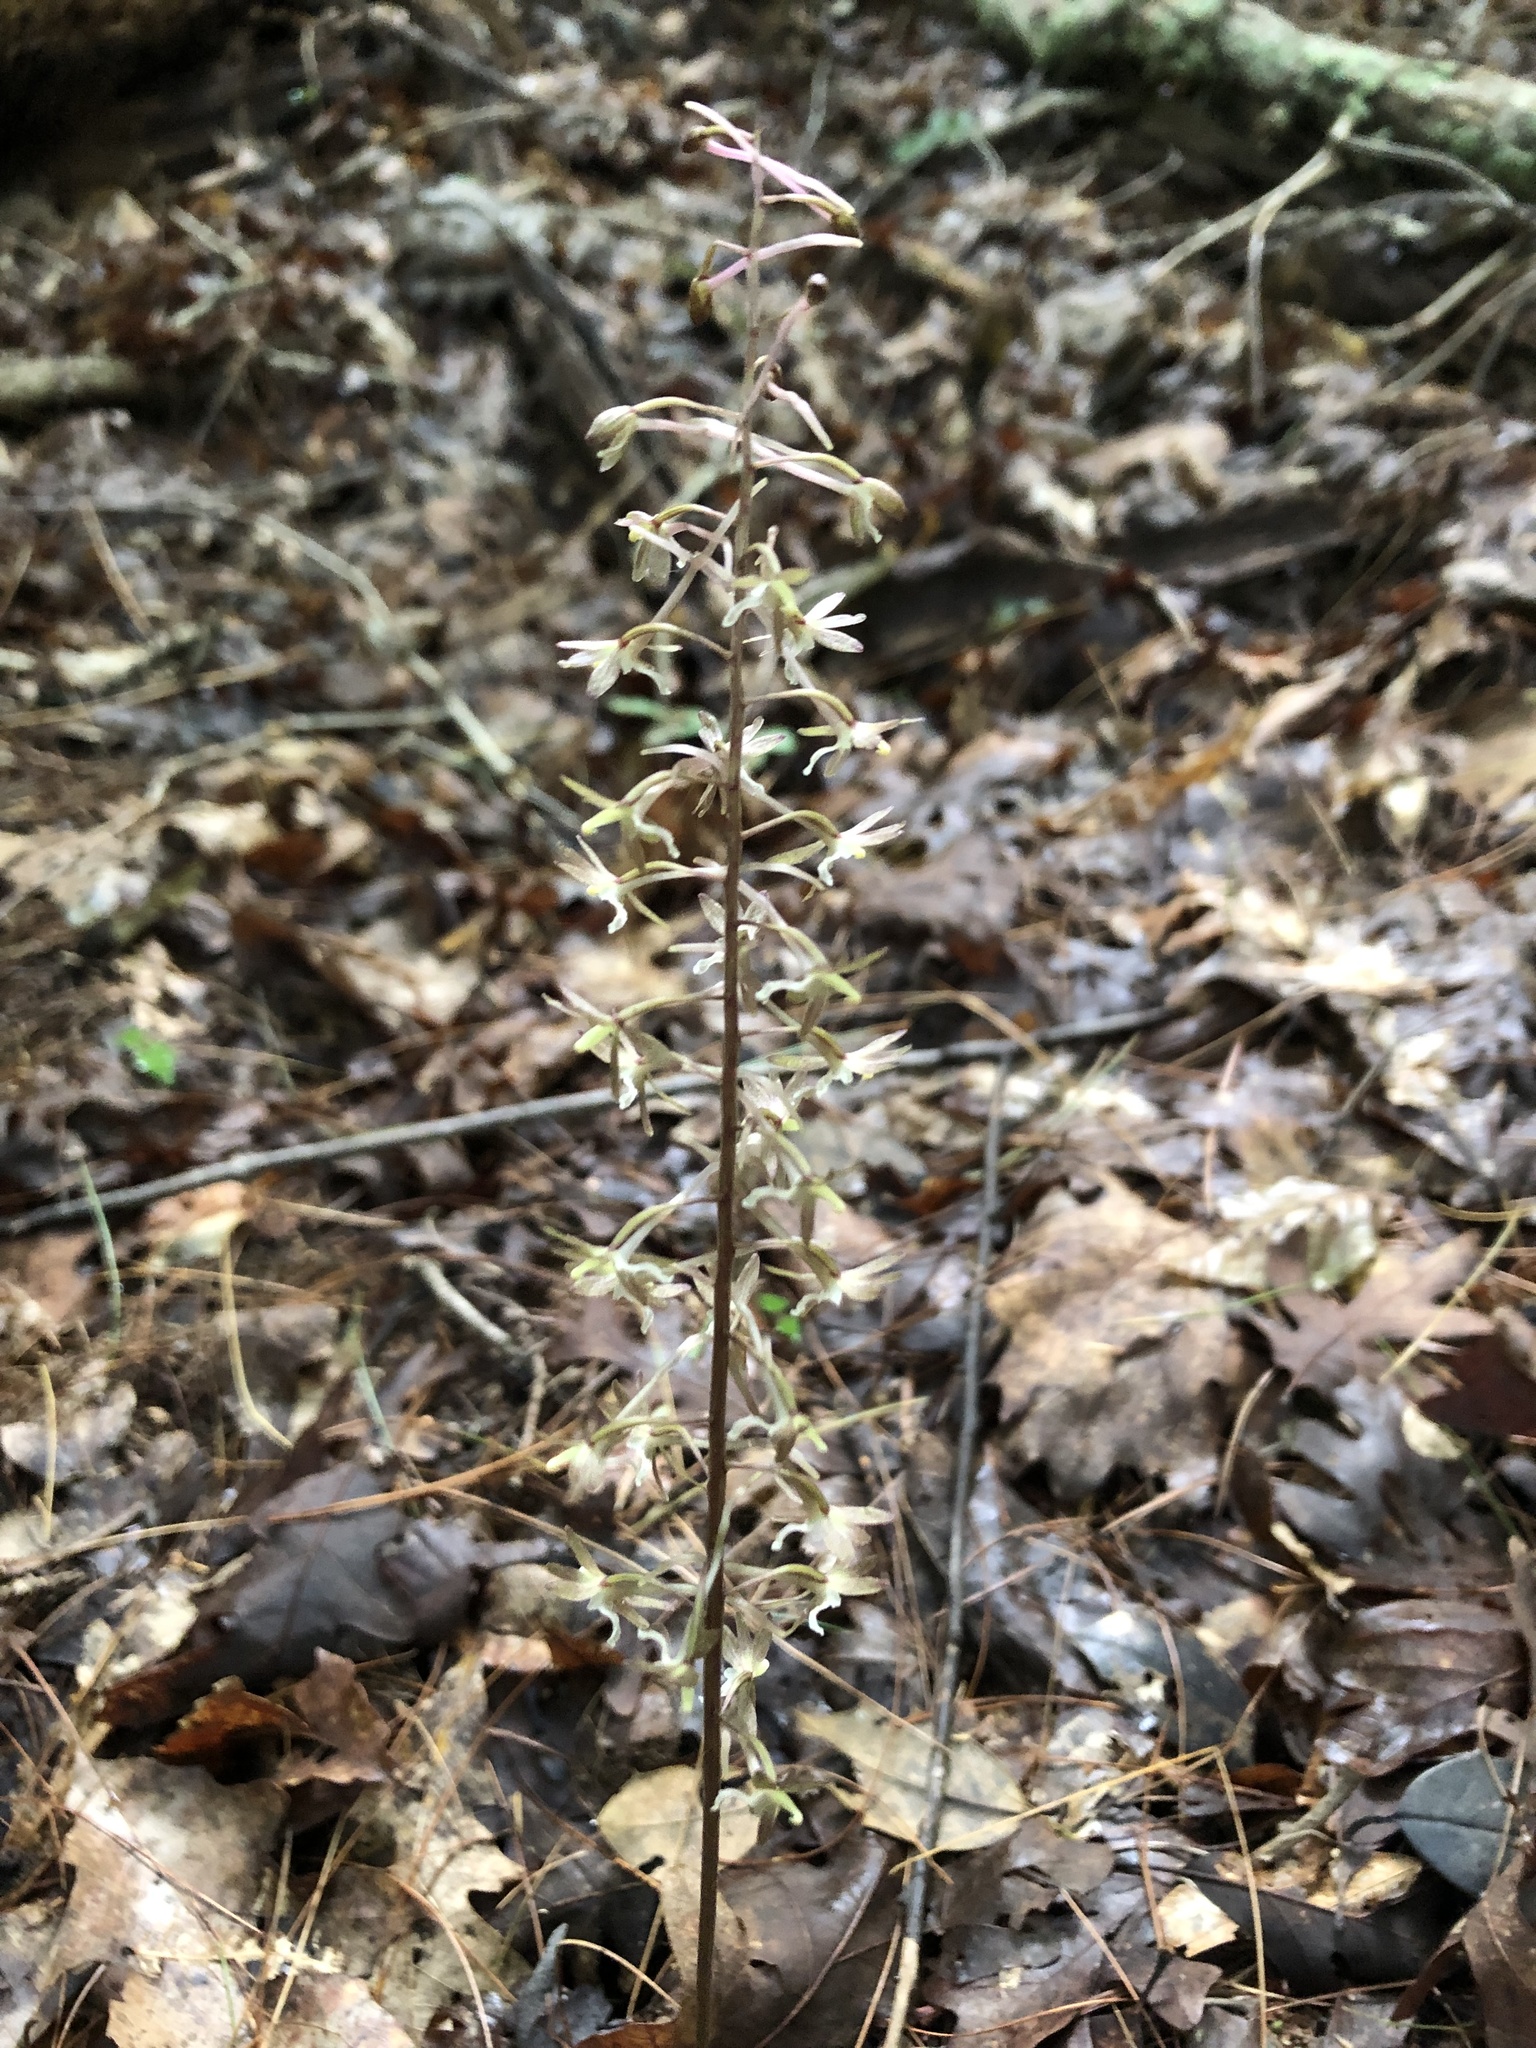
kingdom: Plantae
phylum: Tracheophyta
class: Liliopsida
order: Asparagales
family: Orchidaceae
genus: Tipularia
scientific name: Tipularia discolor
